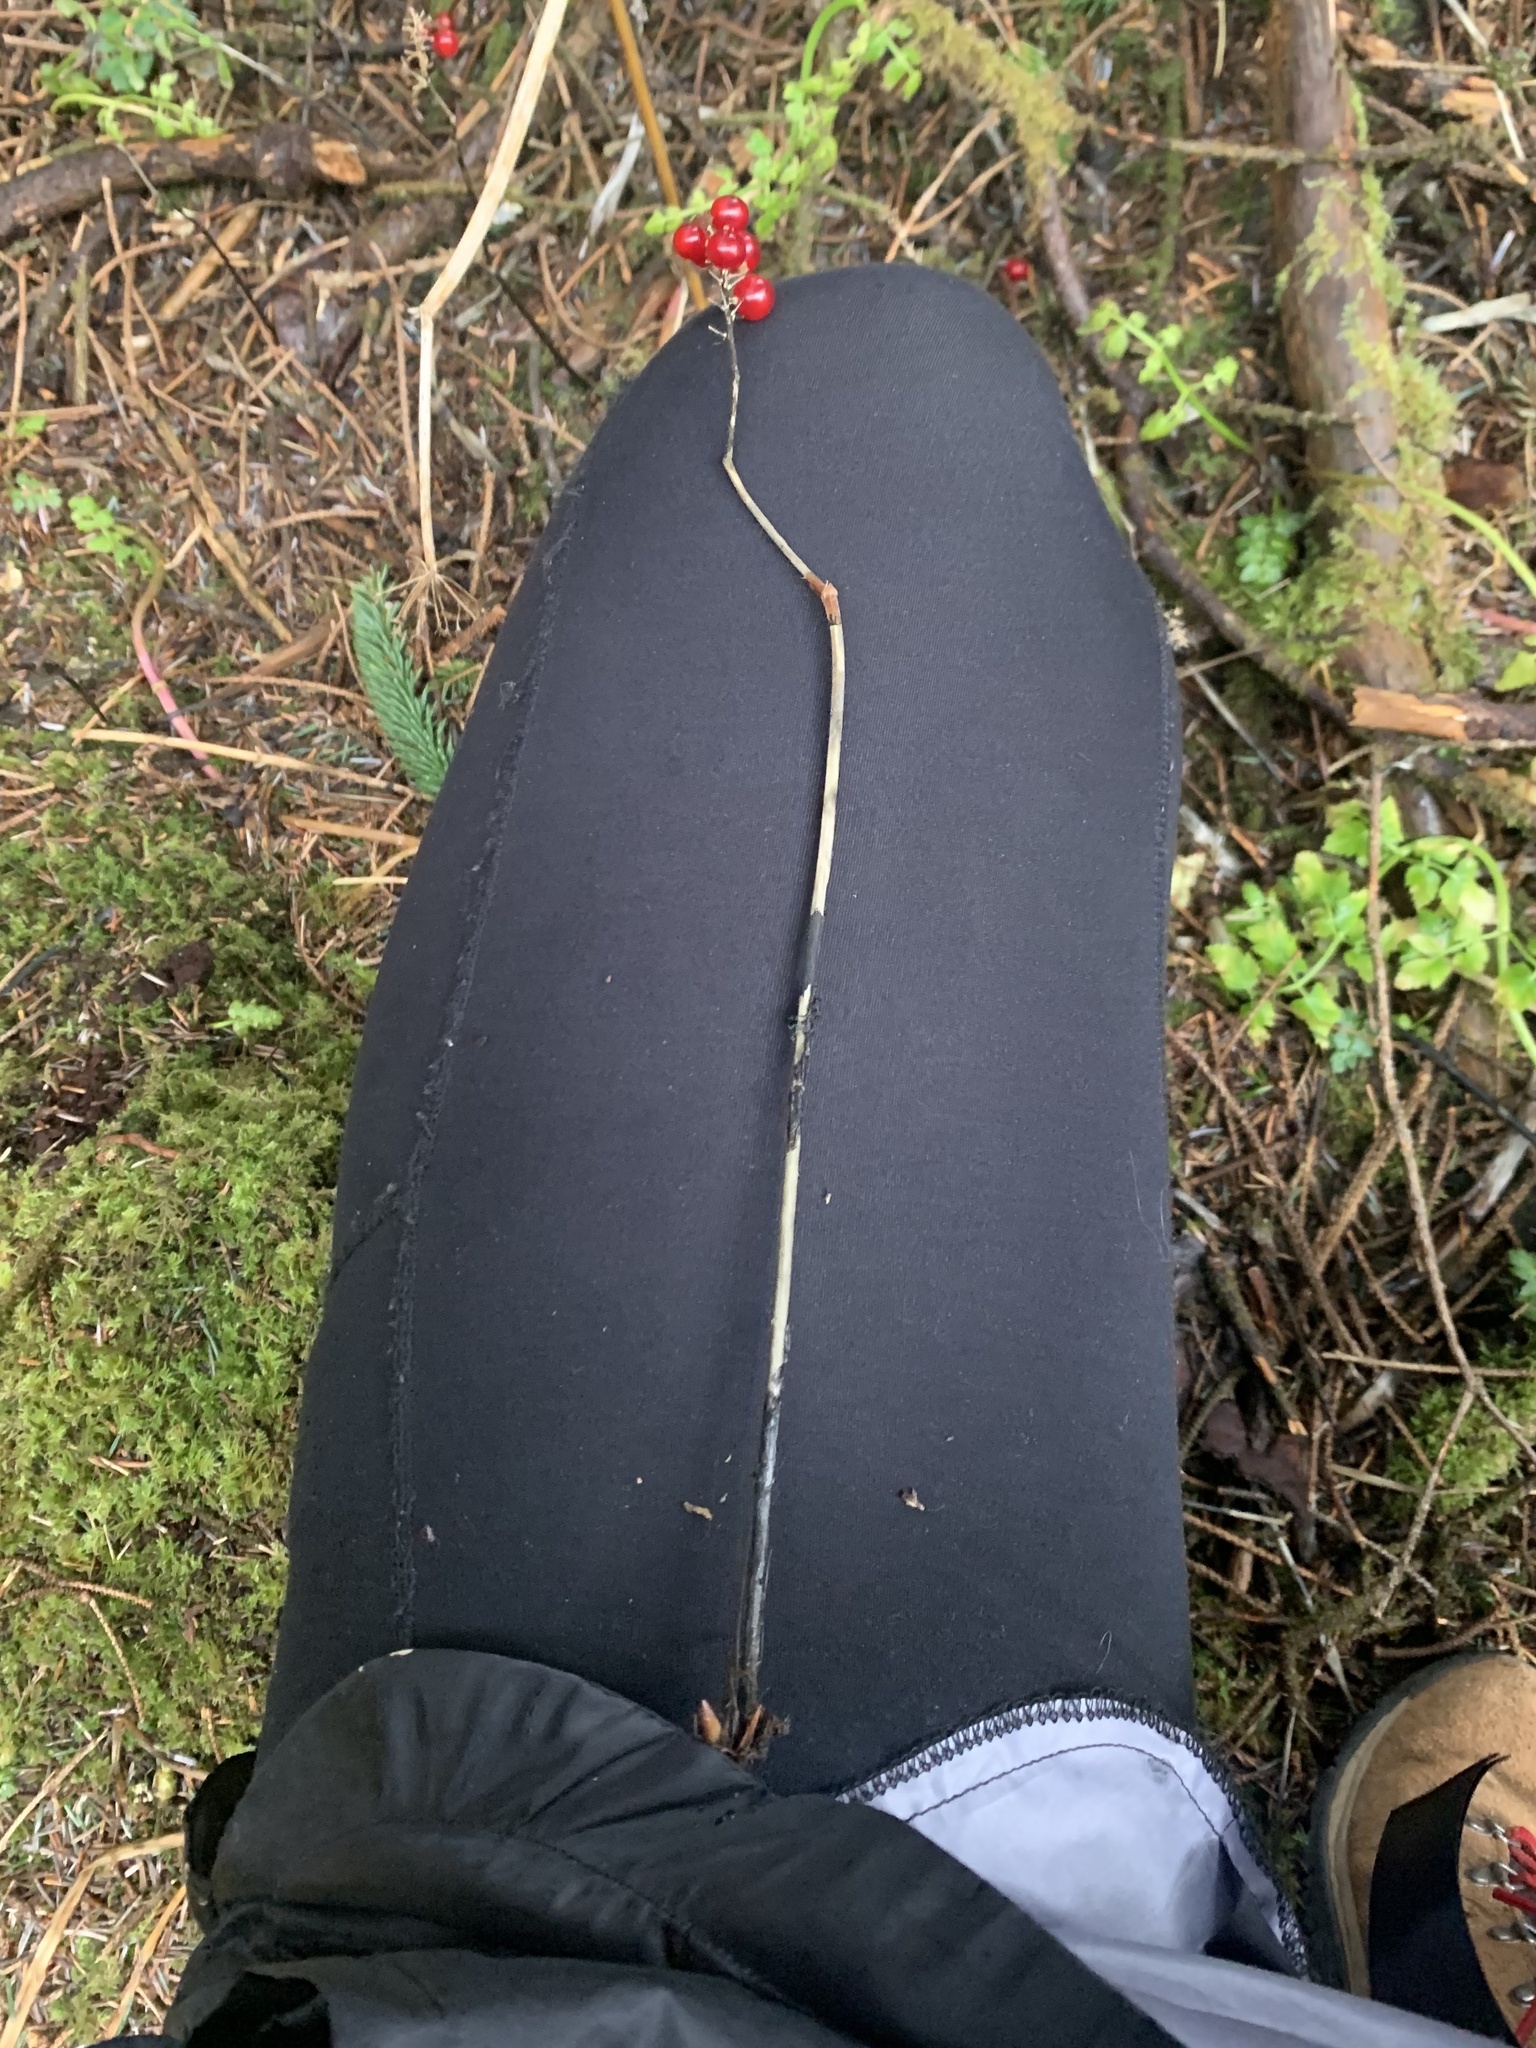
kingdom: Plantae
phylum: Tracheophyta
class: Liliopsida
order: Asparagales
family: Asparagaceae
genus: Maianthemum
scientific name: Maianthemum dilatatum
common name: False lily-of-the-valley
